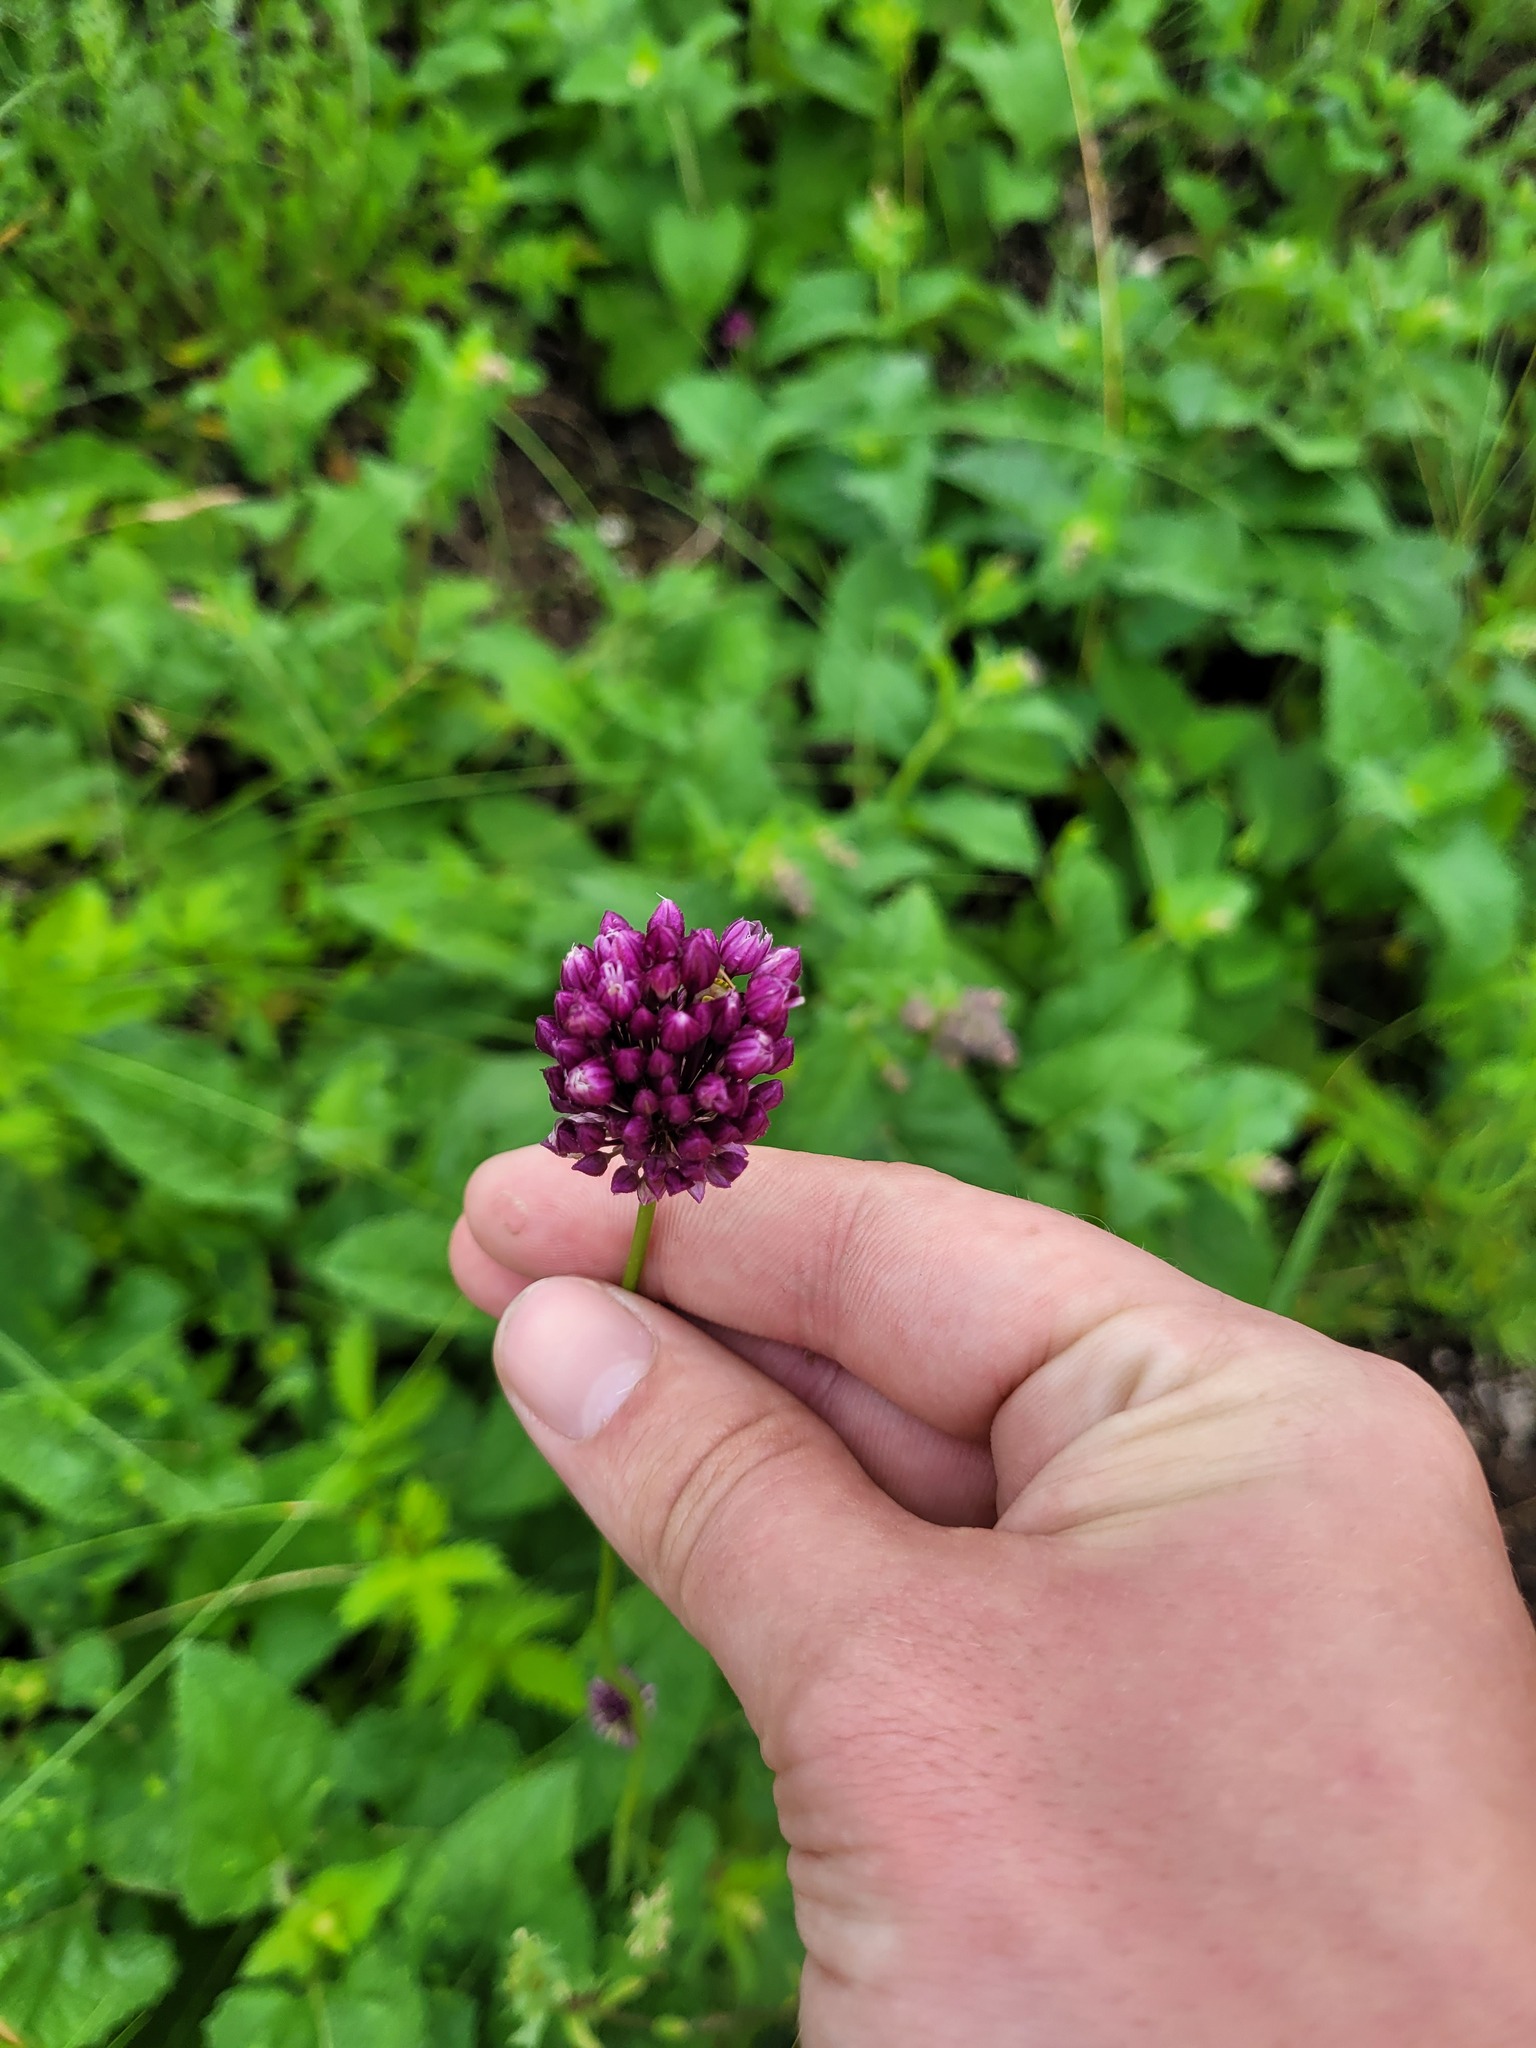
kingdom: Plantae
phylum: Tracheophyta
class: Liliopsida
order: Asparagales
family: Amaryllidaceae
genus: Allium
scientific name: Allium rotundum
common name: Sand leek
